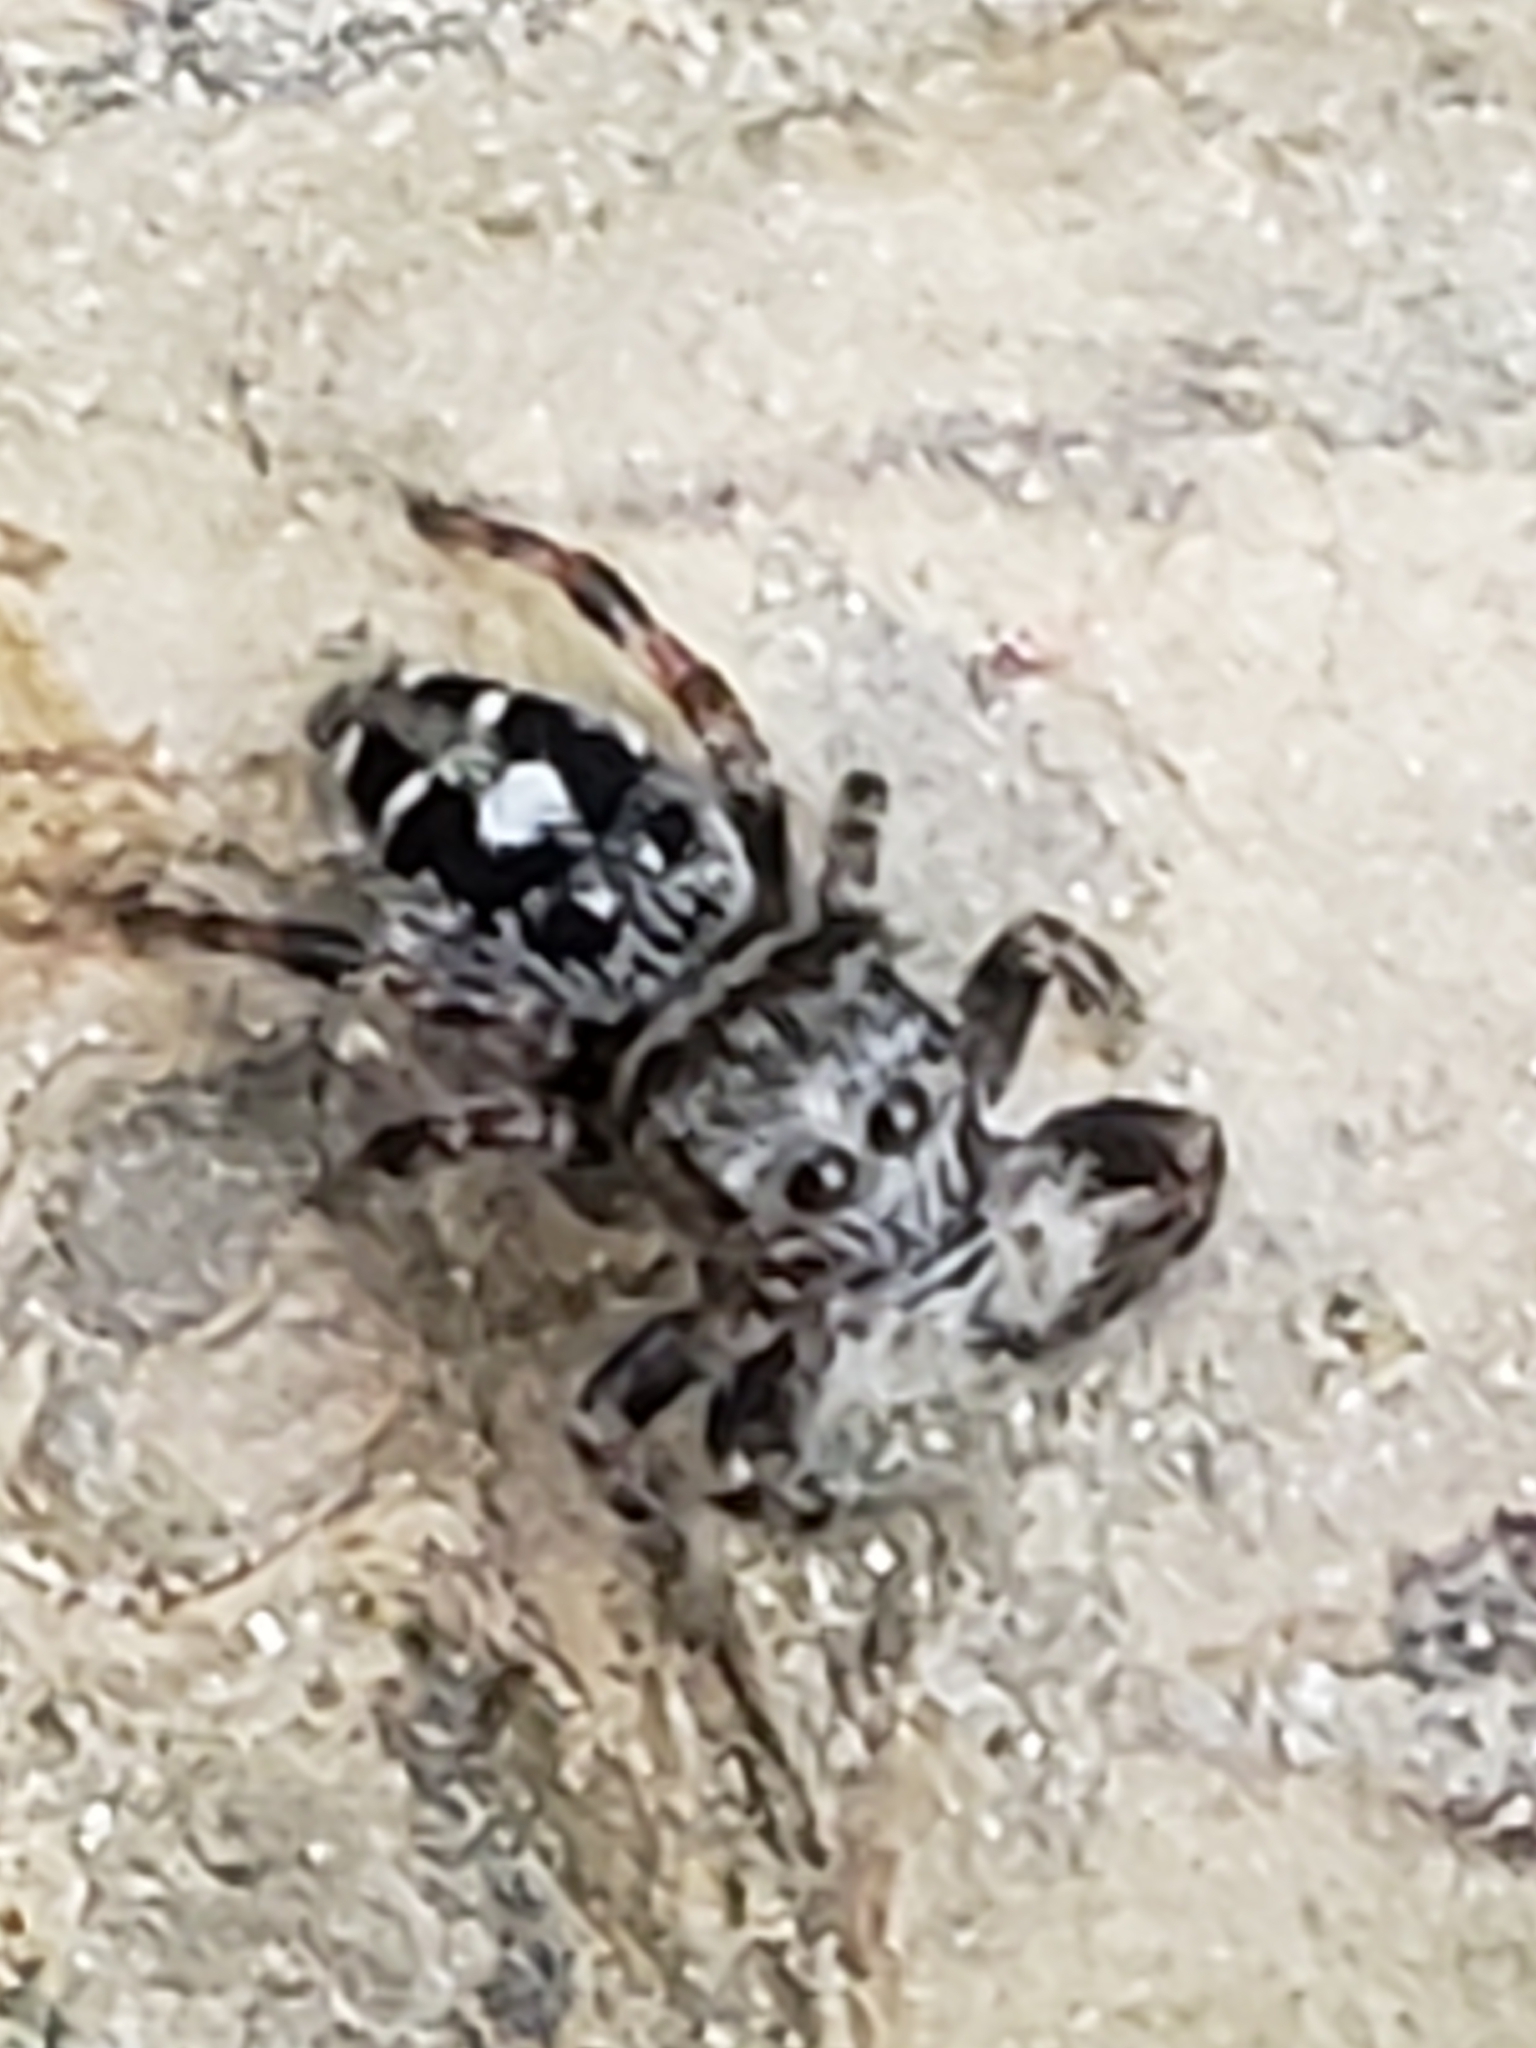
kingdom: Animalia
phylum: Arthropoda
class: Arachnida
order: Araneae
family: Salticidae
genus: Phidippus
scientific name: Phidippus putnami
